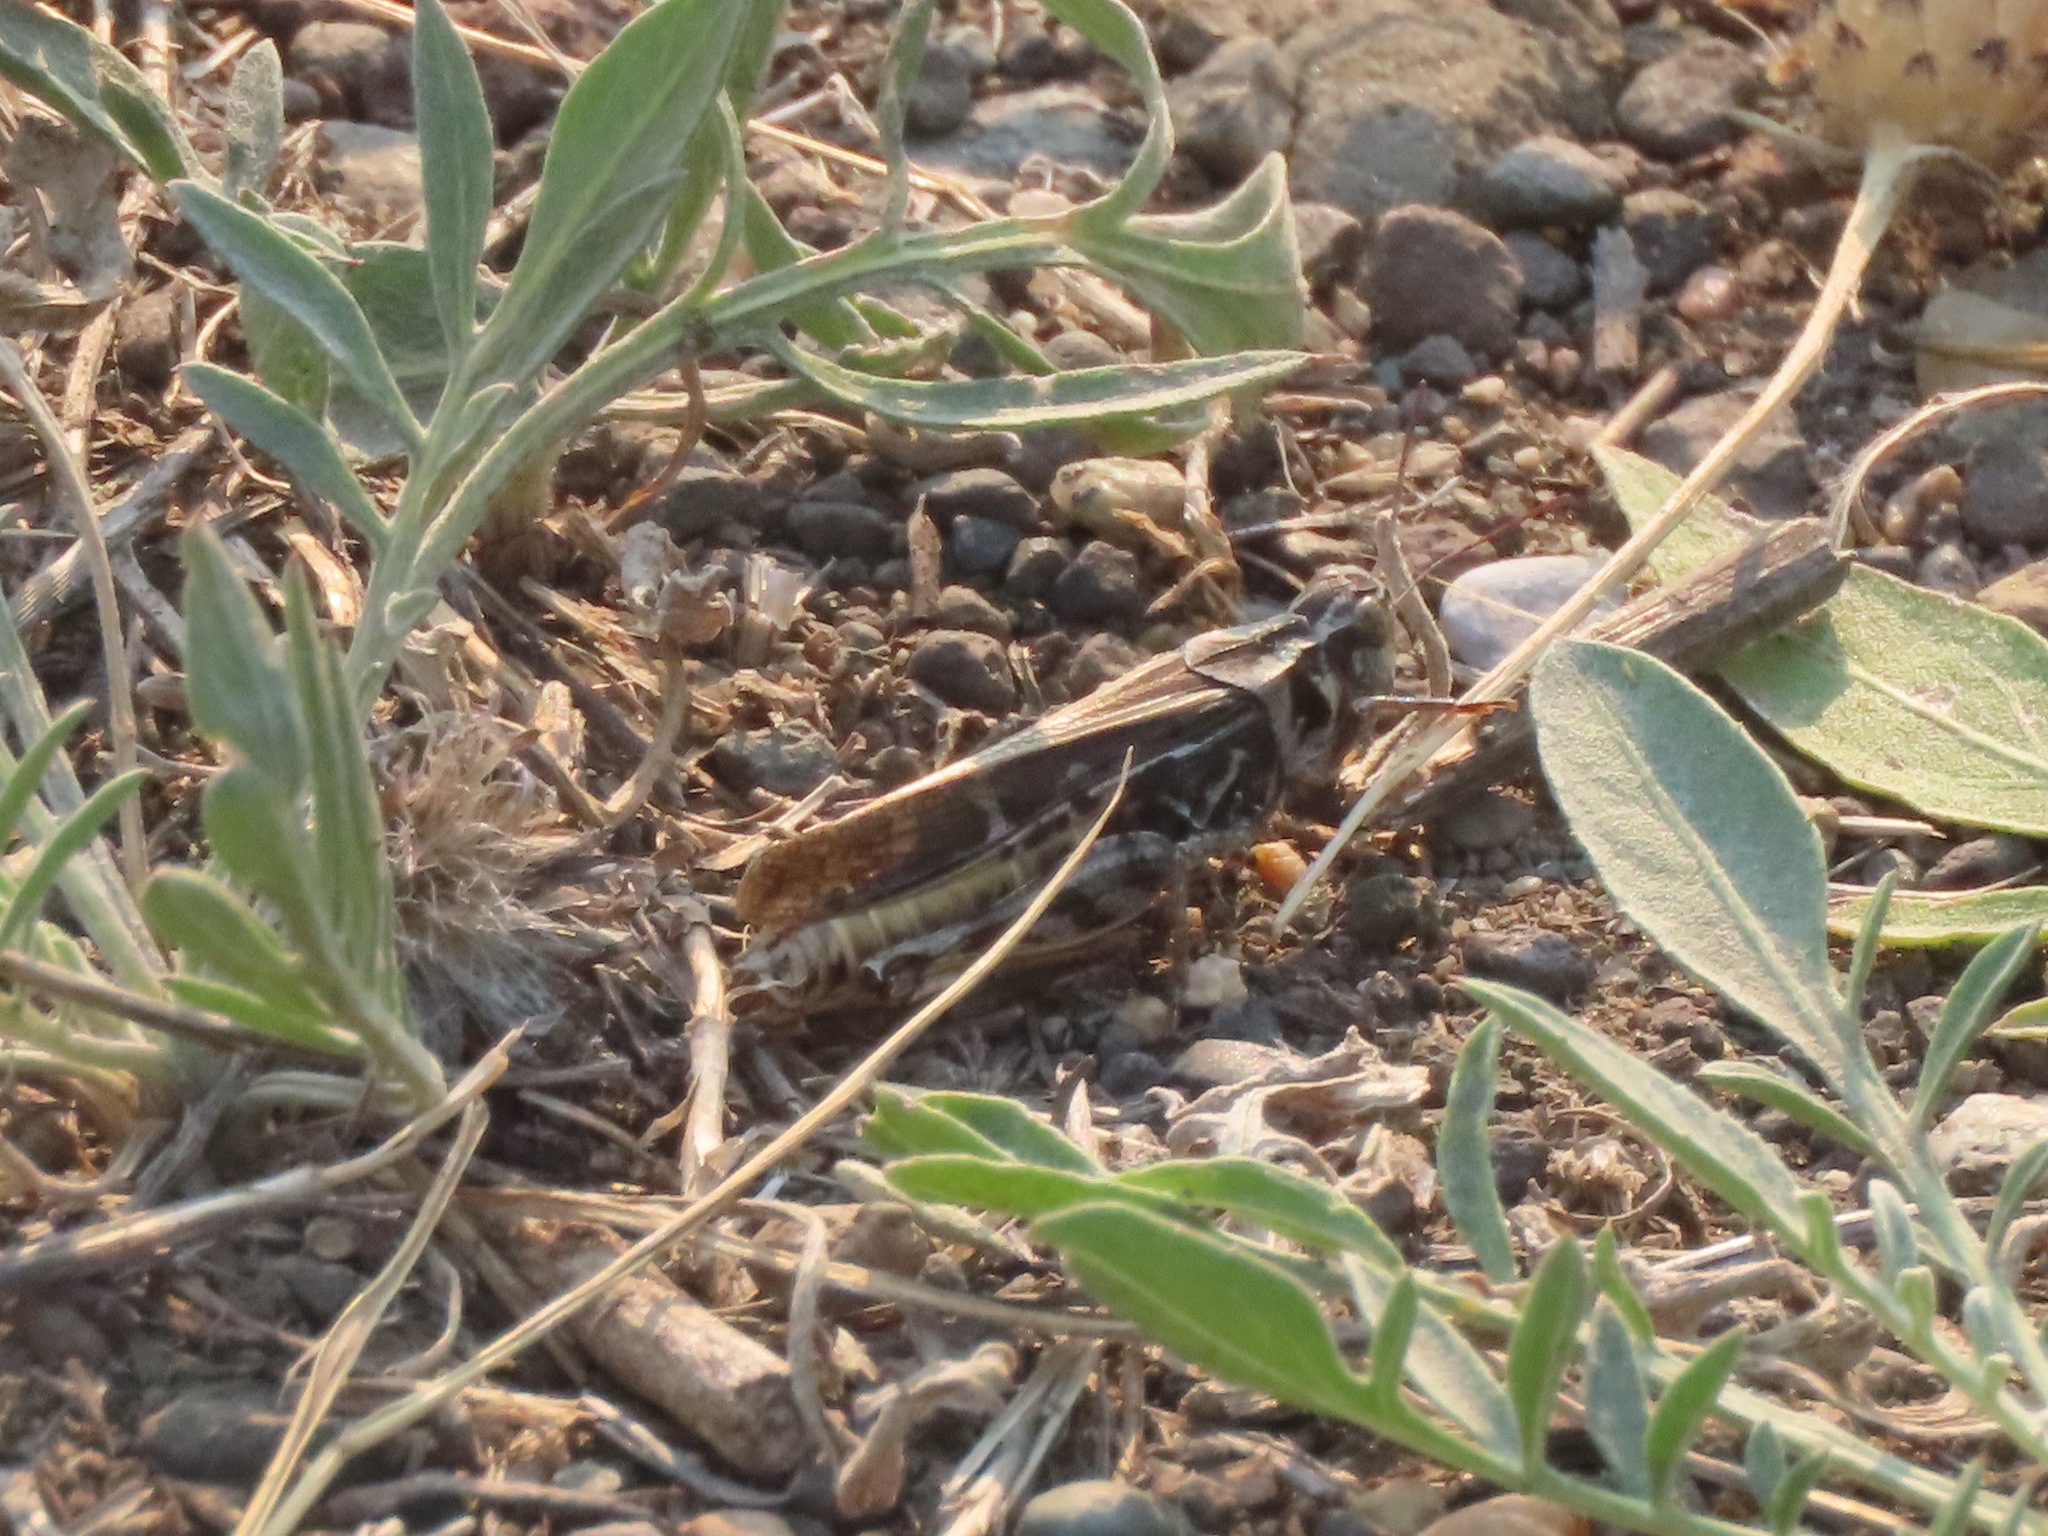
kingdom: Animalia
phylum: Arthropoda
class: Insecta
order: Orthoptera
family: Acrididae
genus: Camnula
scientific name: Camnula pellucida
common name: Clear-winged grasshopper
